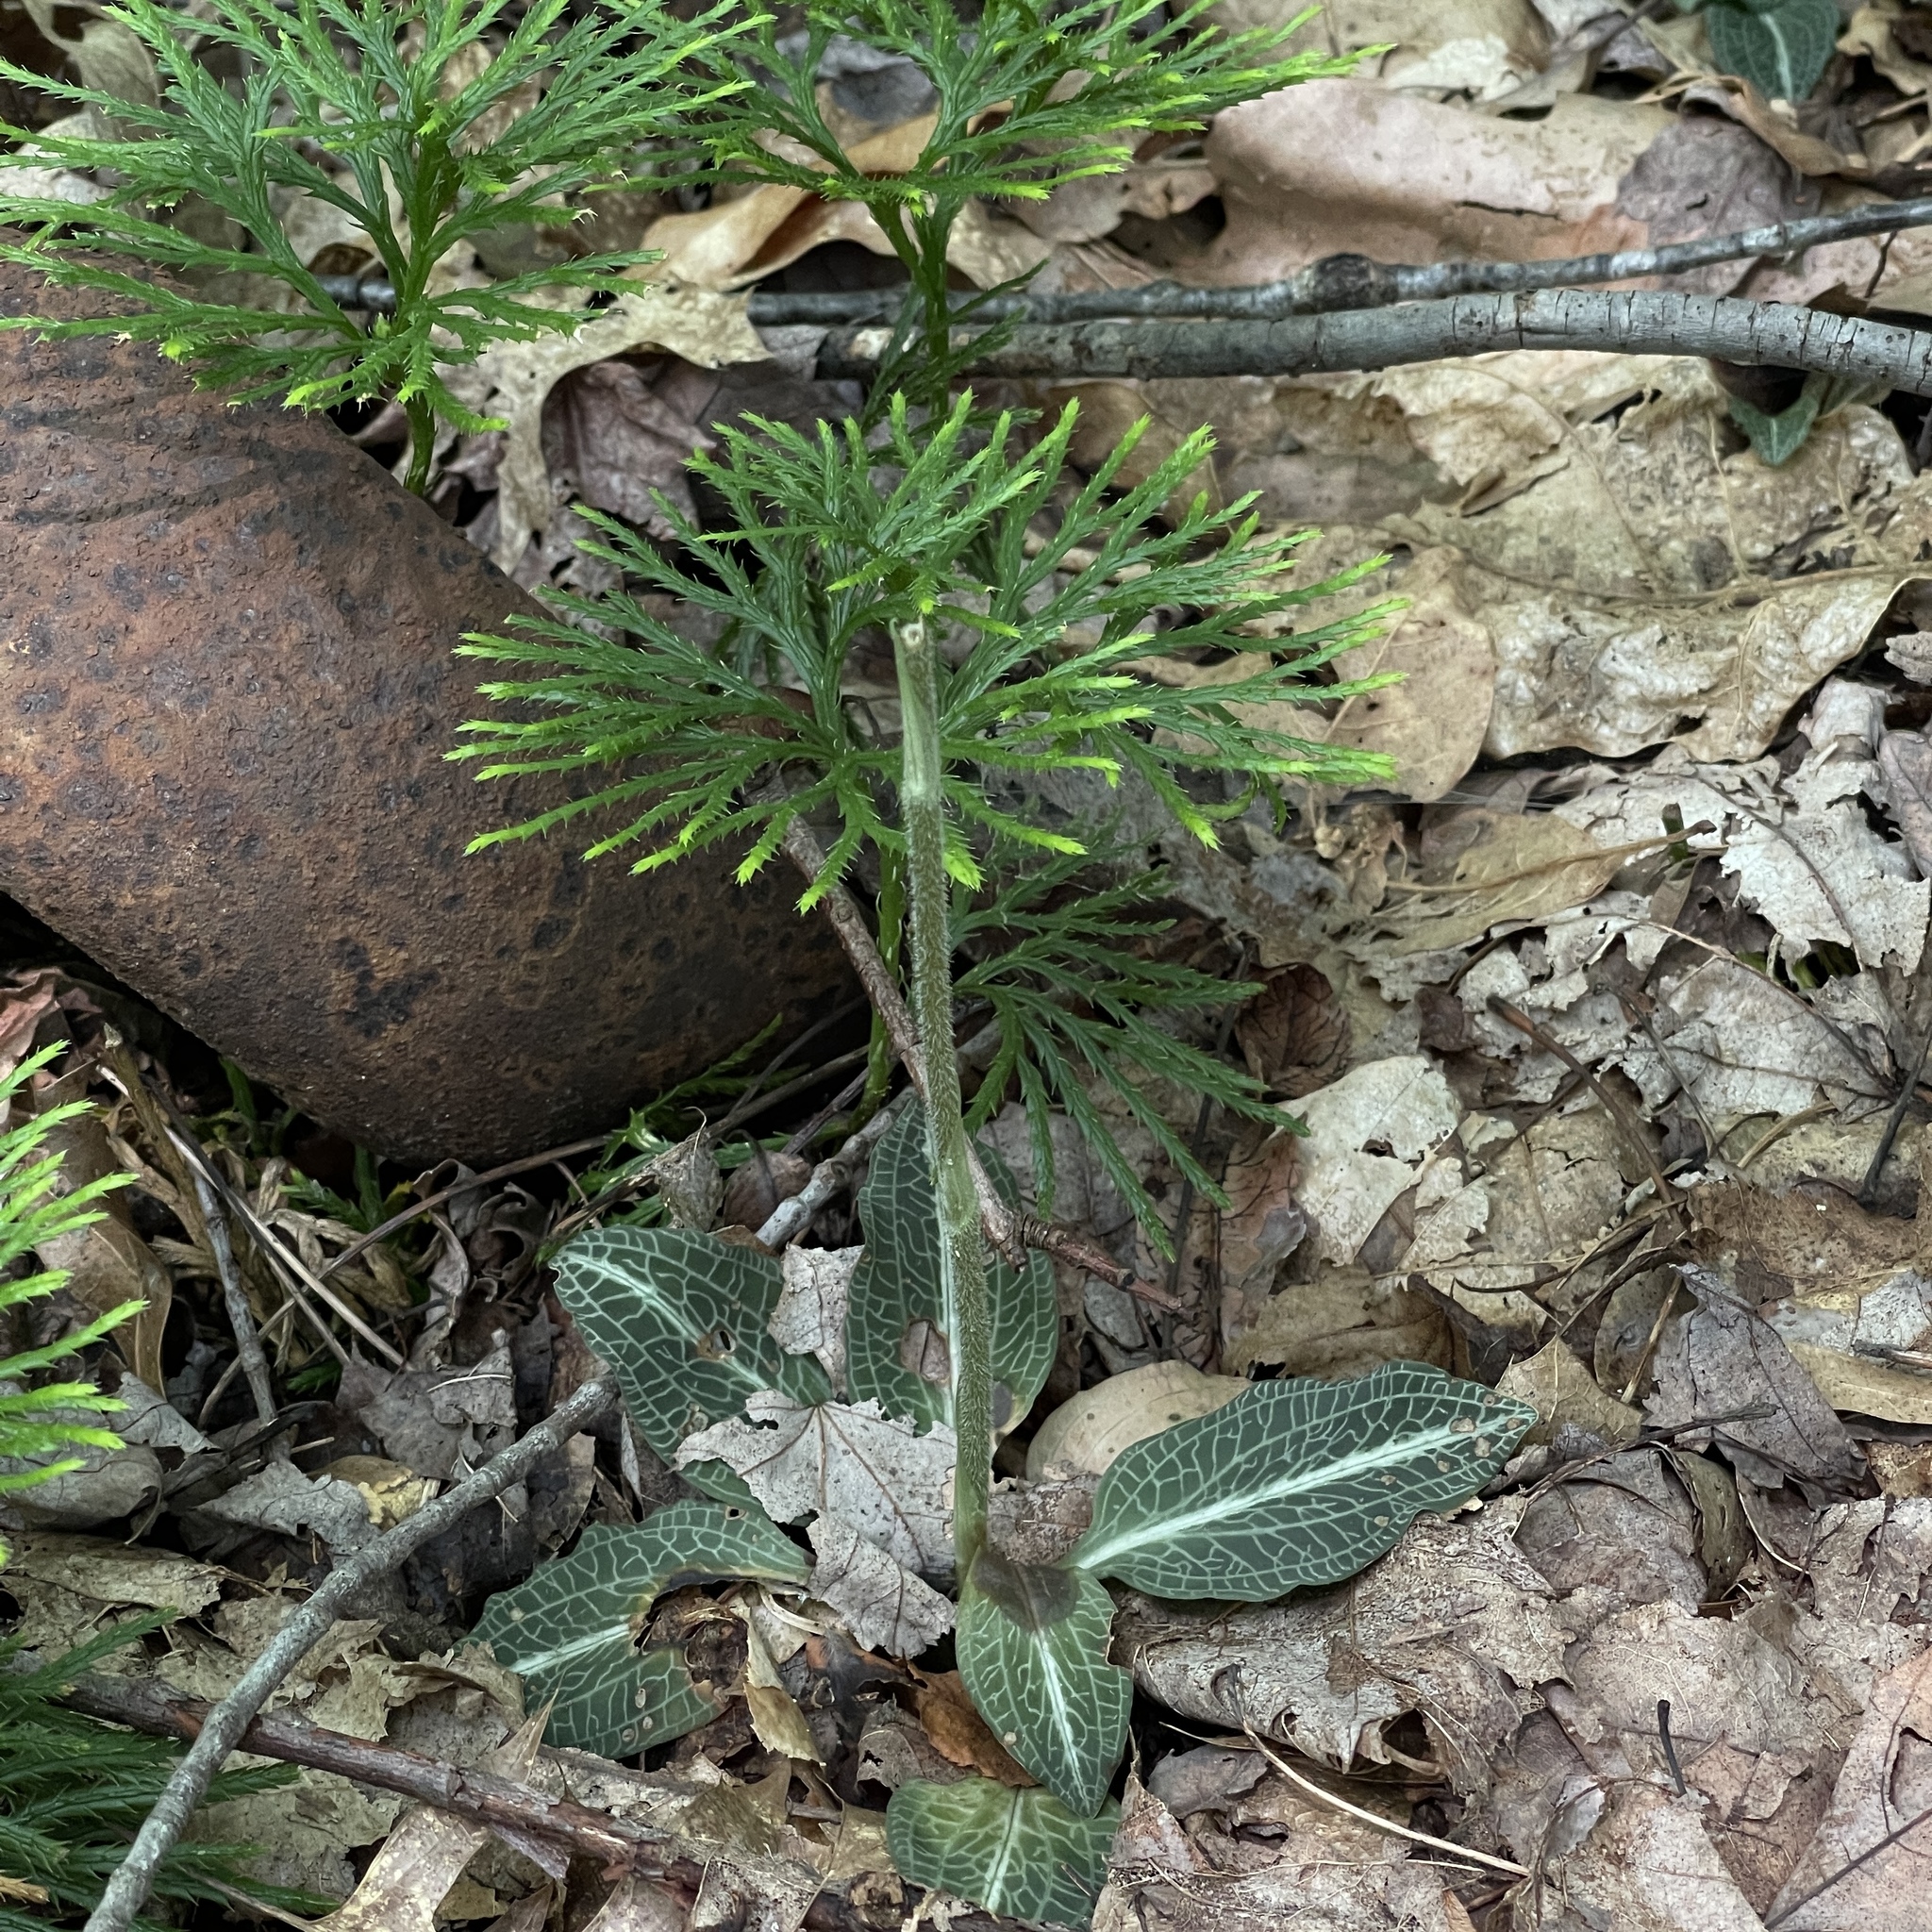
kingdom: Plantae
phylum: Tracheophyta
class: Liliopsida
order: Asparagales
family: Orchidaceae
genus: Goodyera
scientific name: Goodyera pubescens
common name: Downy rattlesnake-plantain
